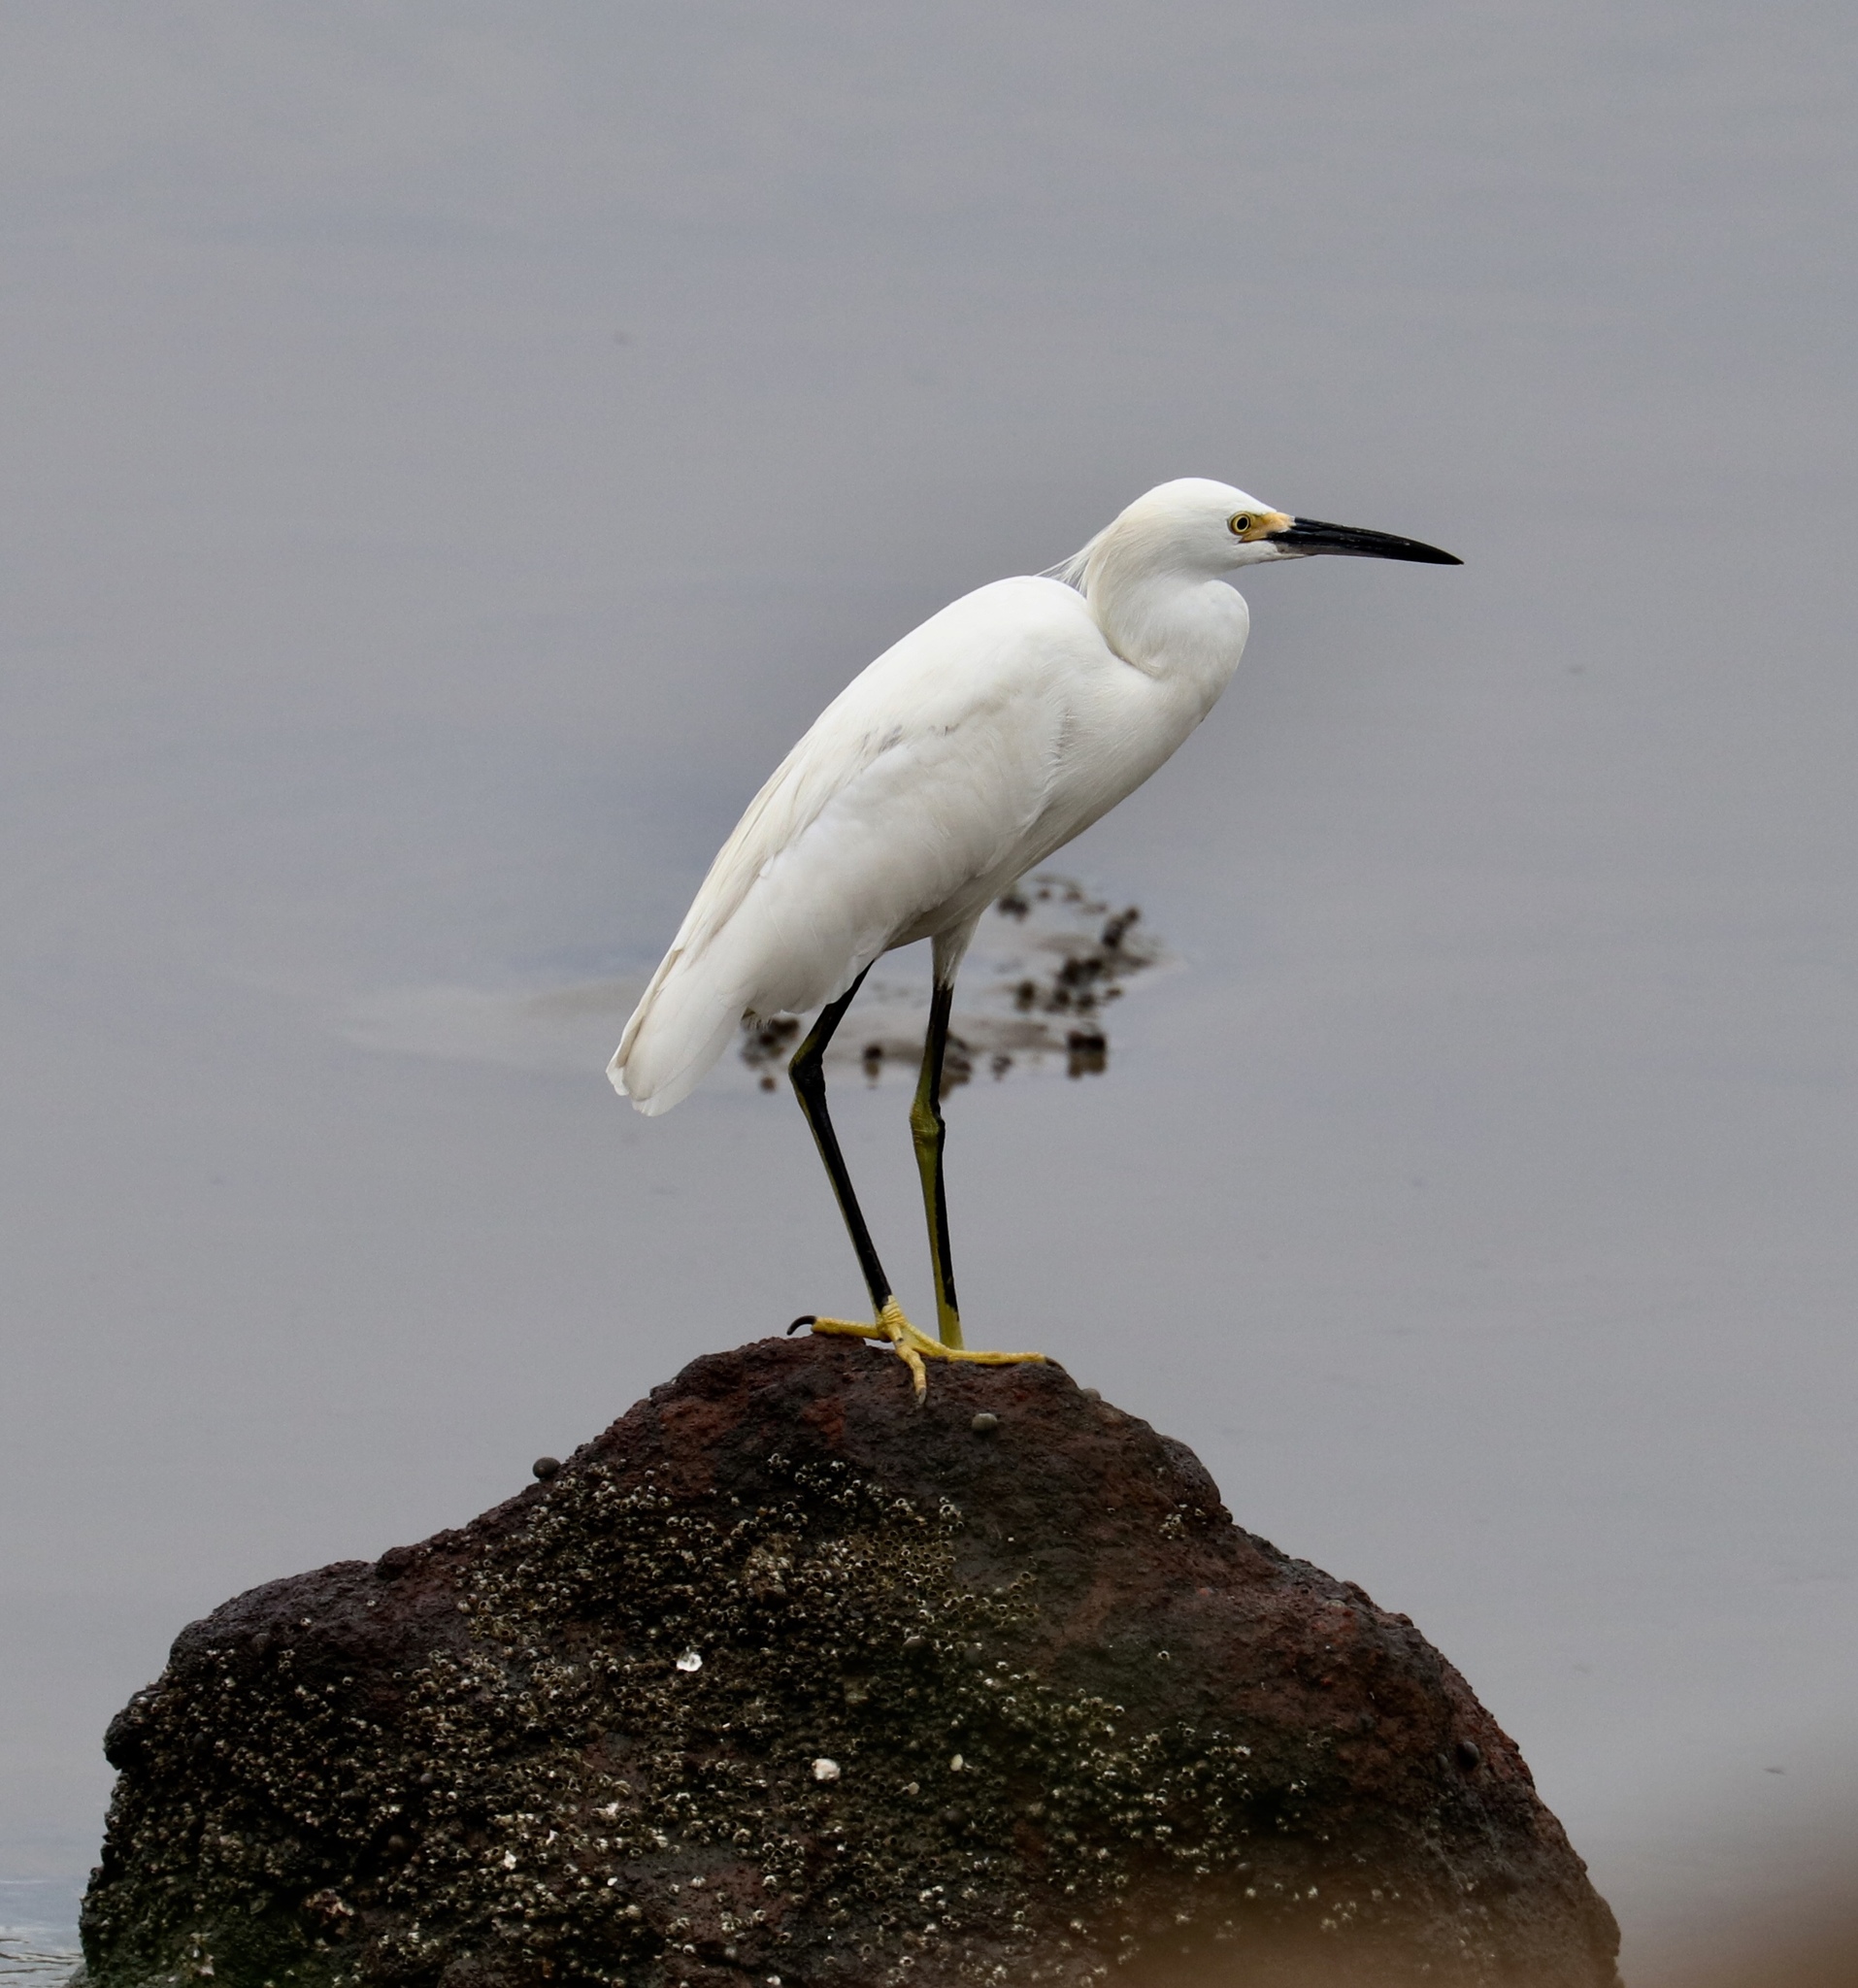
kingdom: Animalia
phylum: Chordata
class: Aves
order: Pelecaniformes
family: Ardeidae
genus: Egretta
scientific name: Egretta thula
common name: Snowy egret
